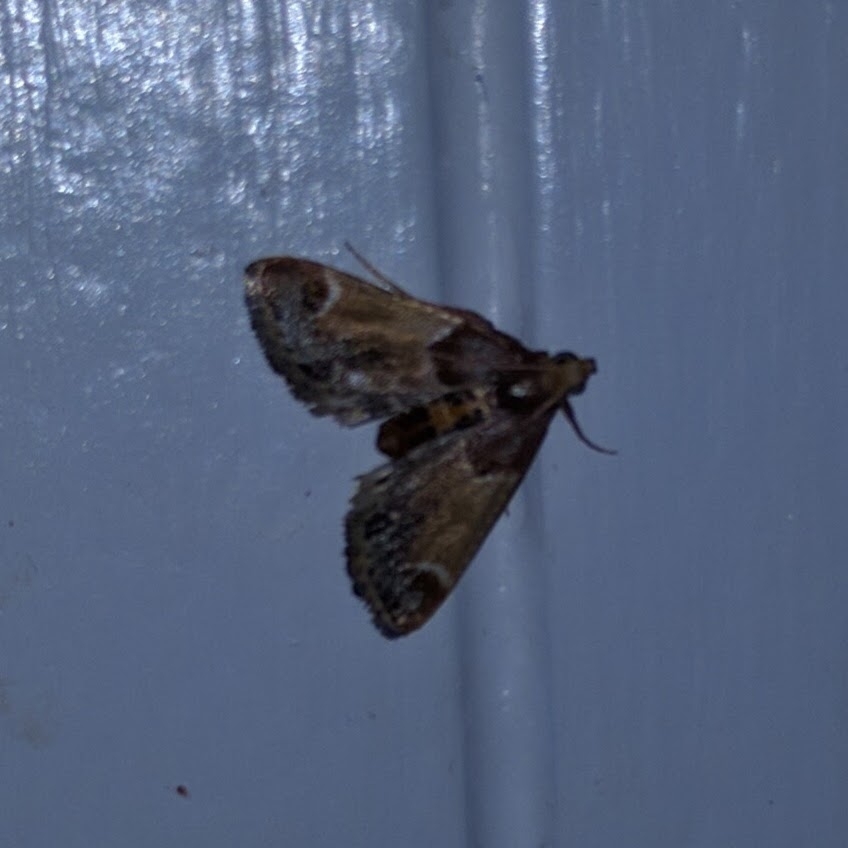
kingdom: Animalia
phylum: Arthropoda
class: Insecta
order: Lepidoptera
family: Pyralidae
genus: Pyralis
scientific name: Pyralis farinalis
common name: Meal moth
